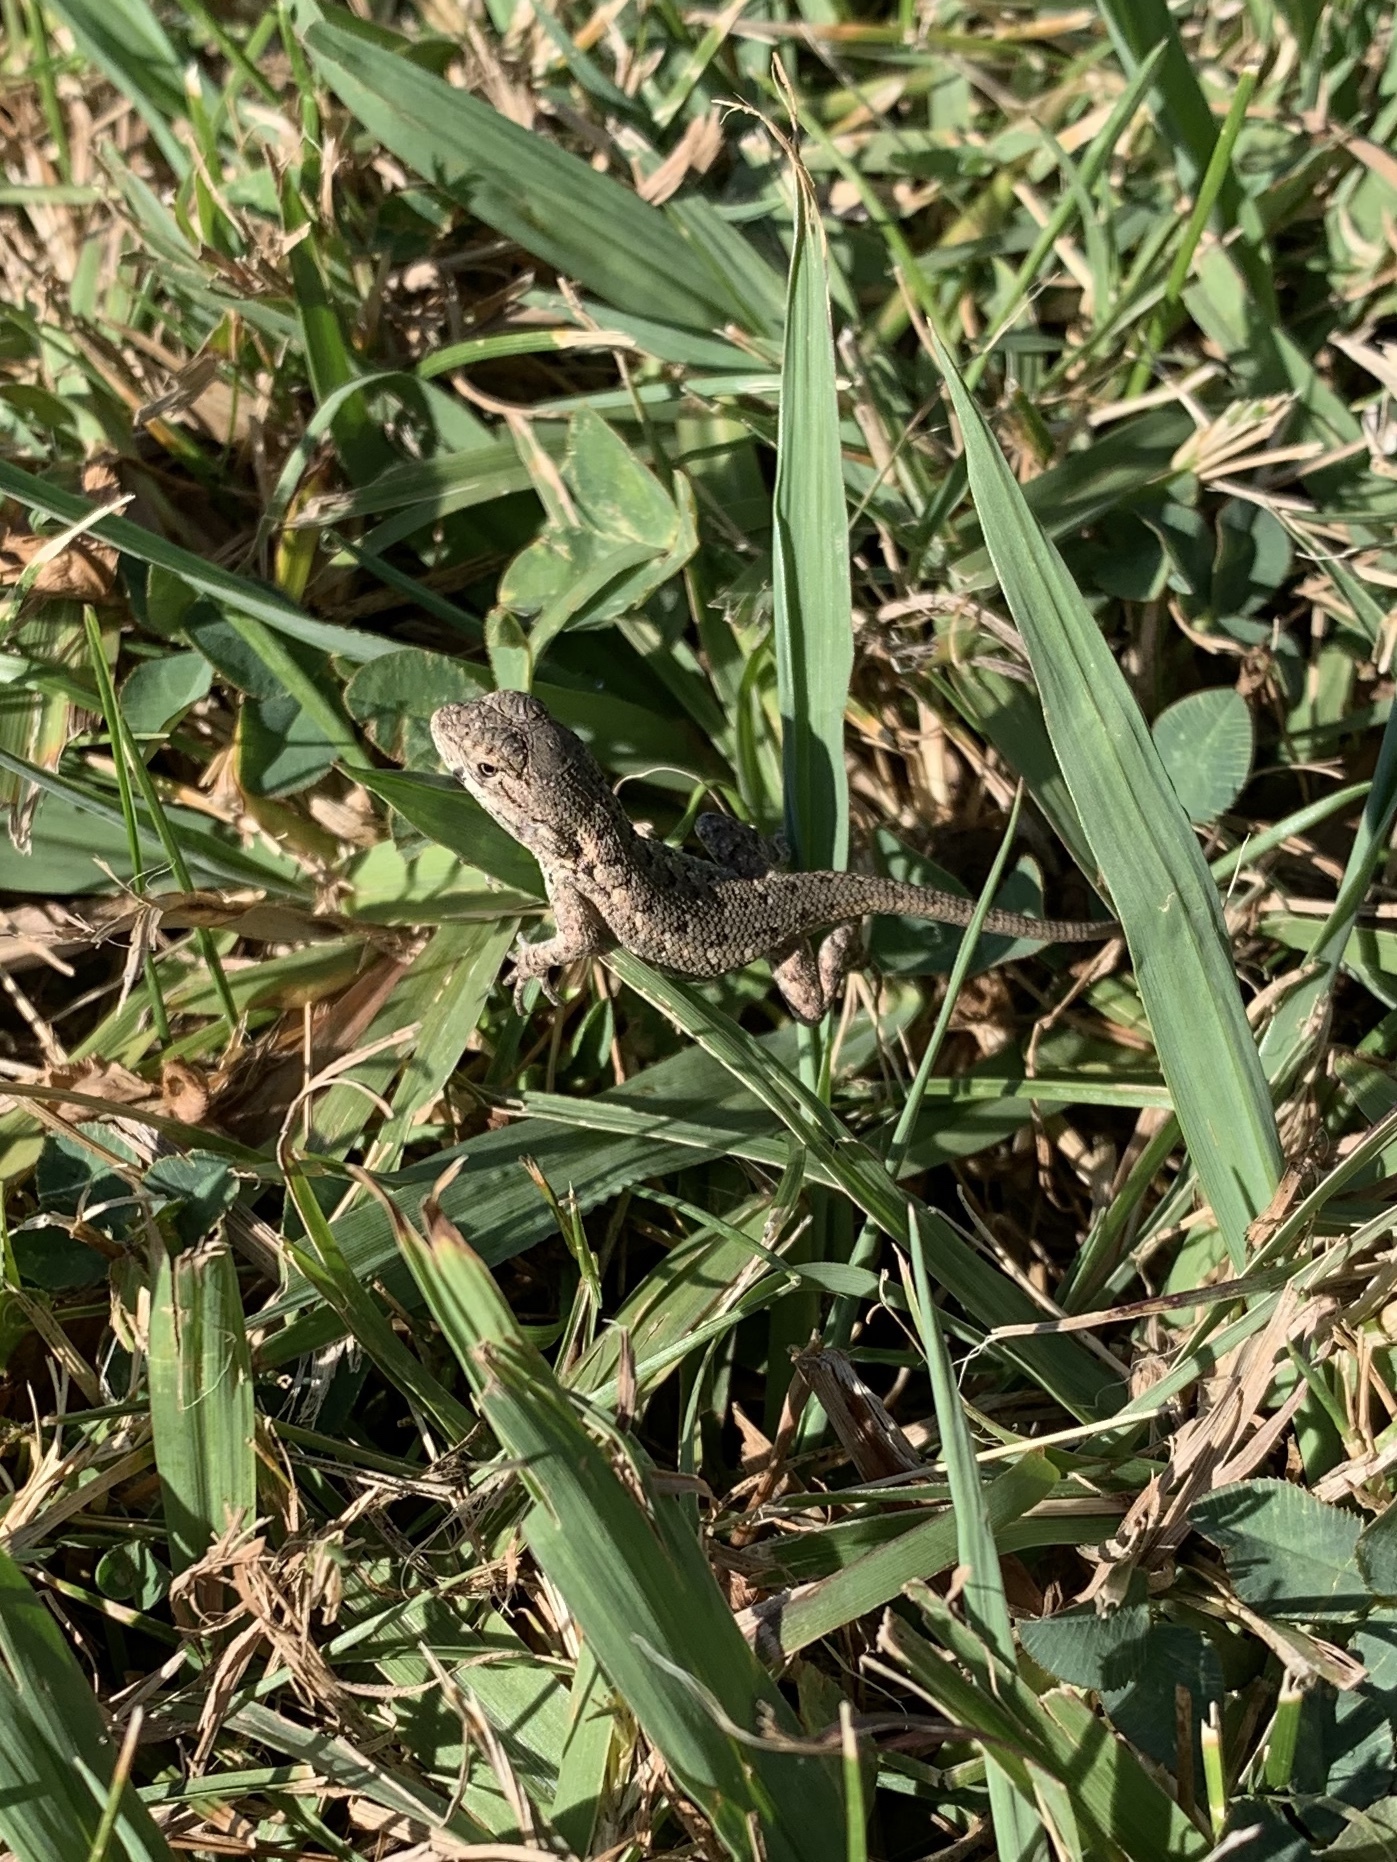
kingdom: Animalia
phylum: Chordata
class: Squamata
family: Phrynosomatidae
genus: Sceloporus
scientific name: Sceloporus occidentalis
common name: Western fence lizard
